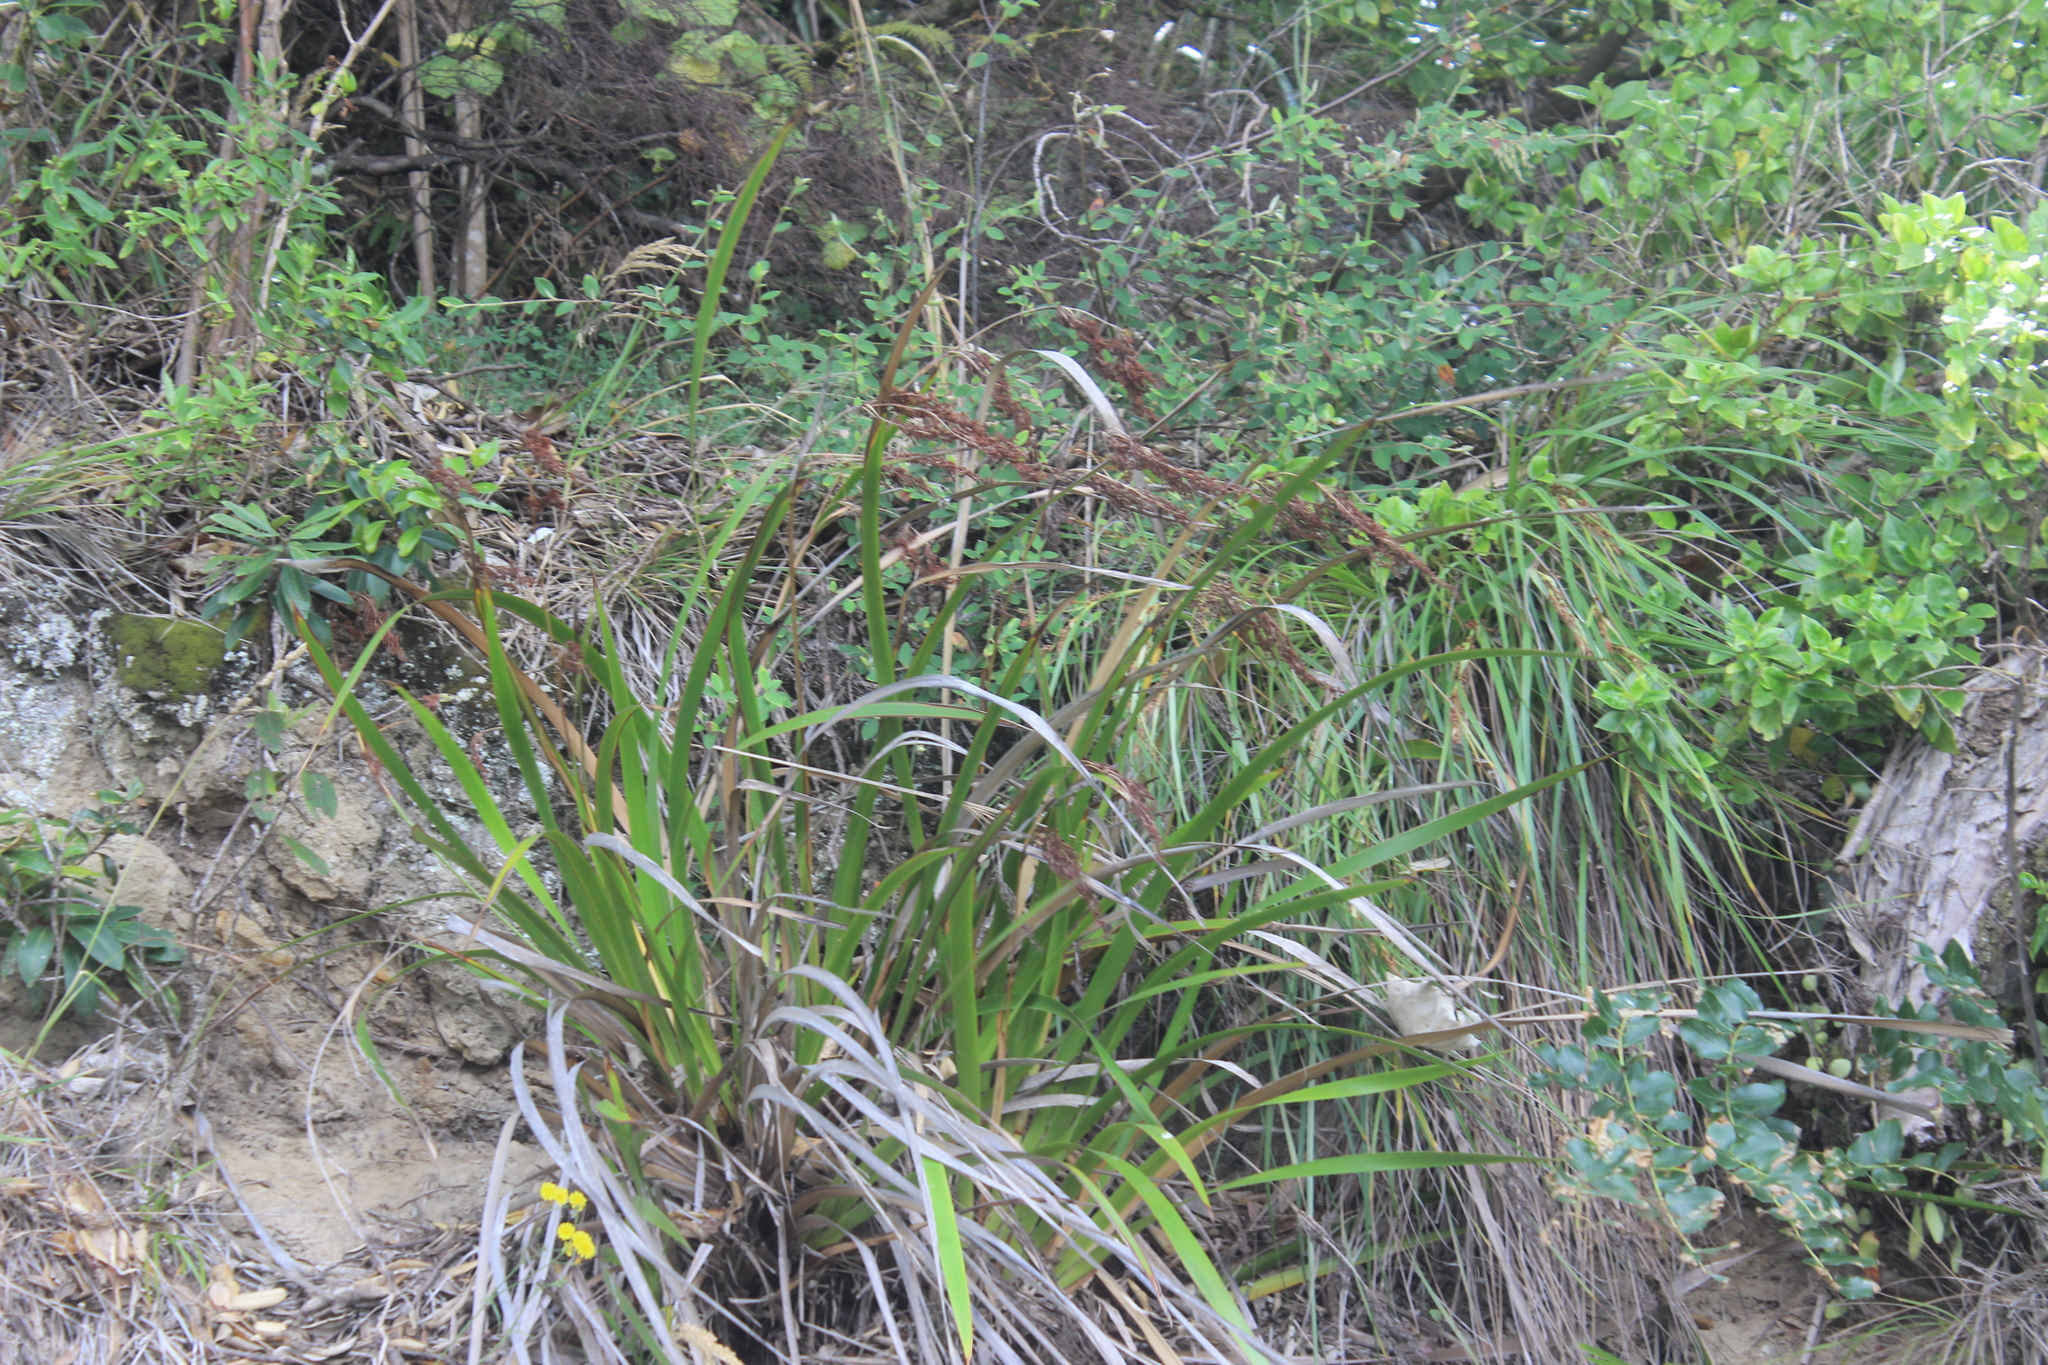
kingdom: Plantae
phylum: Tracheophyta
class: Liliopsida
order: Poales
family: Cyperaceae
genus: Machaerina
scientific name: Machaerina sinclairii
